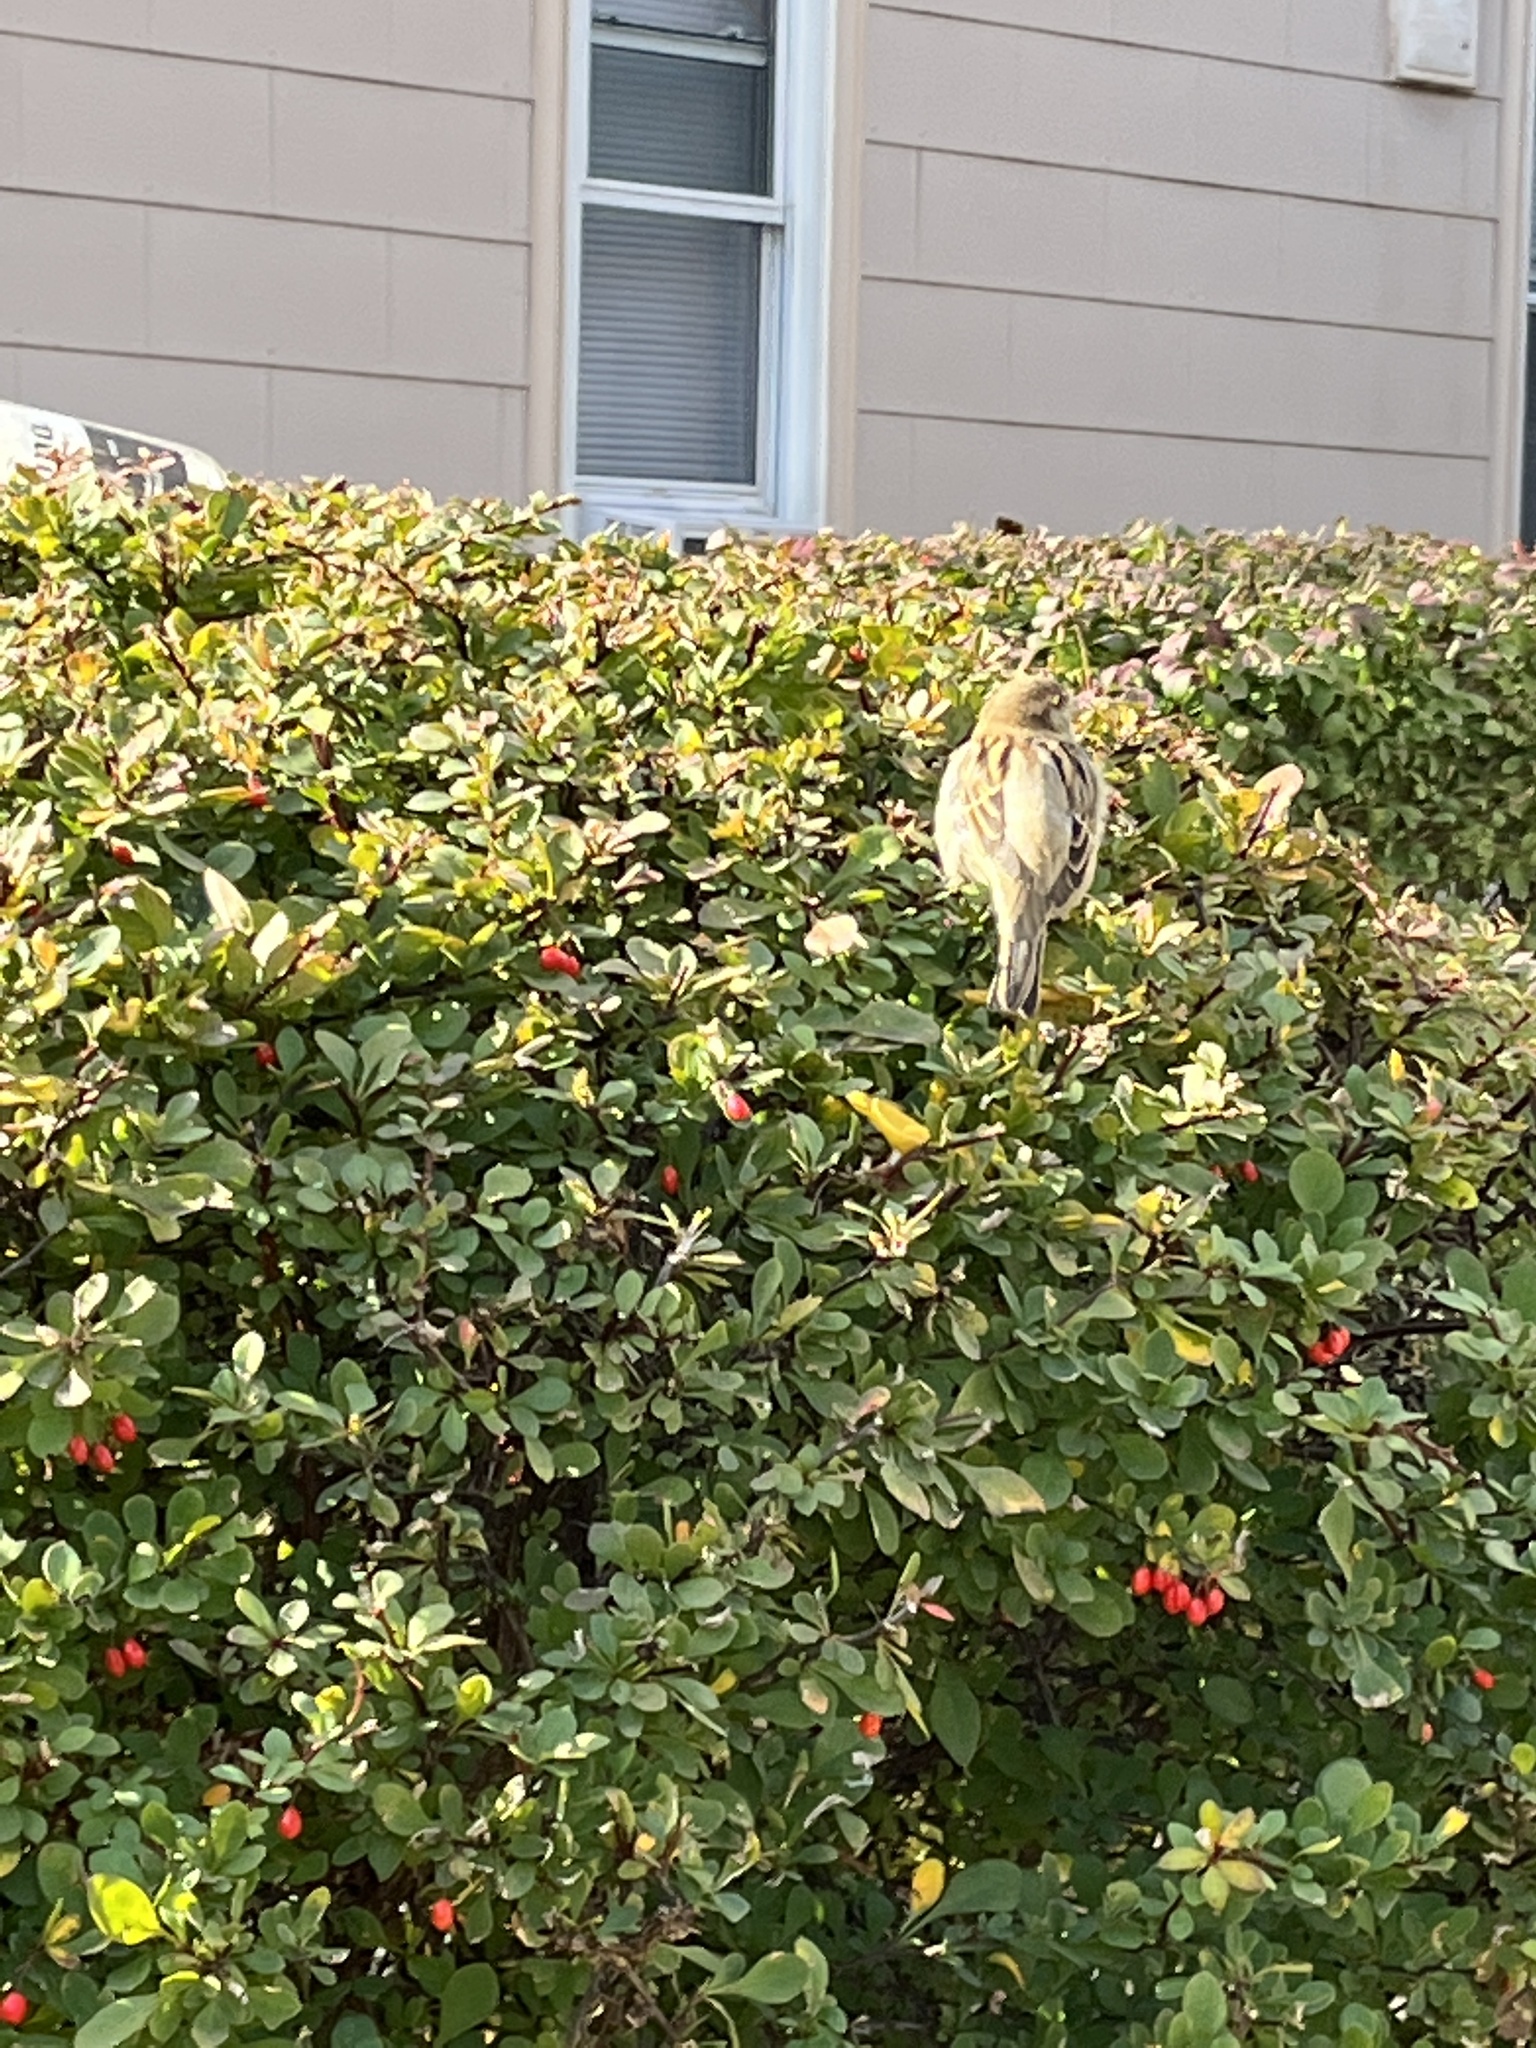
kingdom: Animalia
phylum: Chordata
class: Aves
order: Passeriformes
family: Passeridae
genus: Passer
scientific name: Passer domesticus
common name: House sparrow
